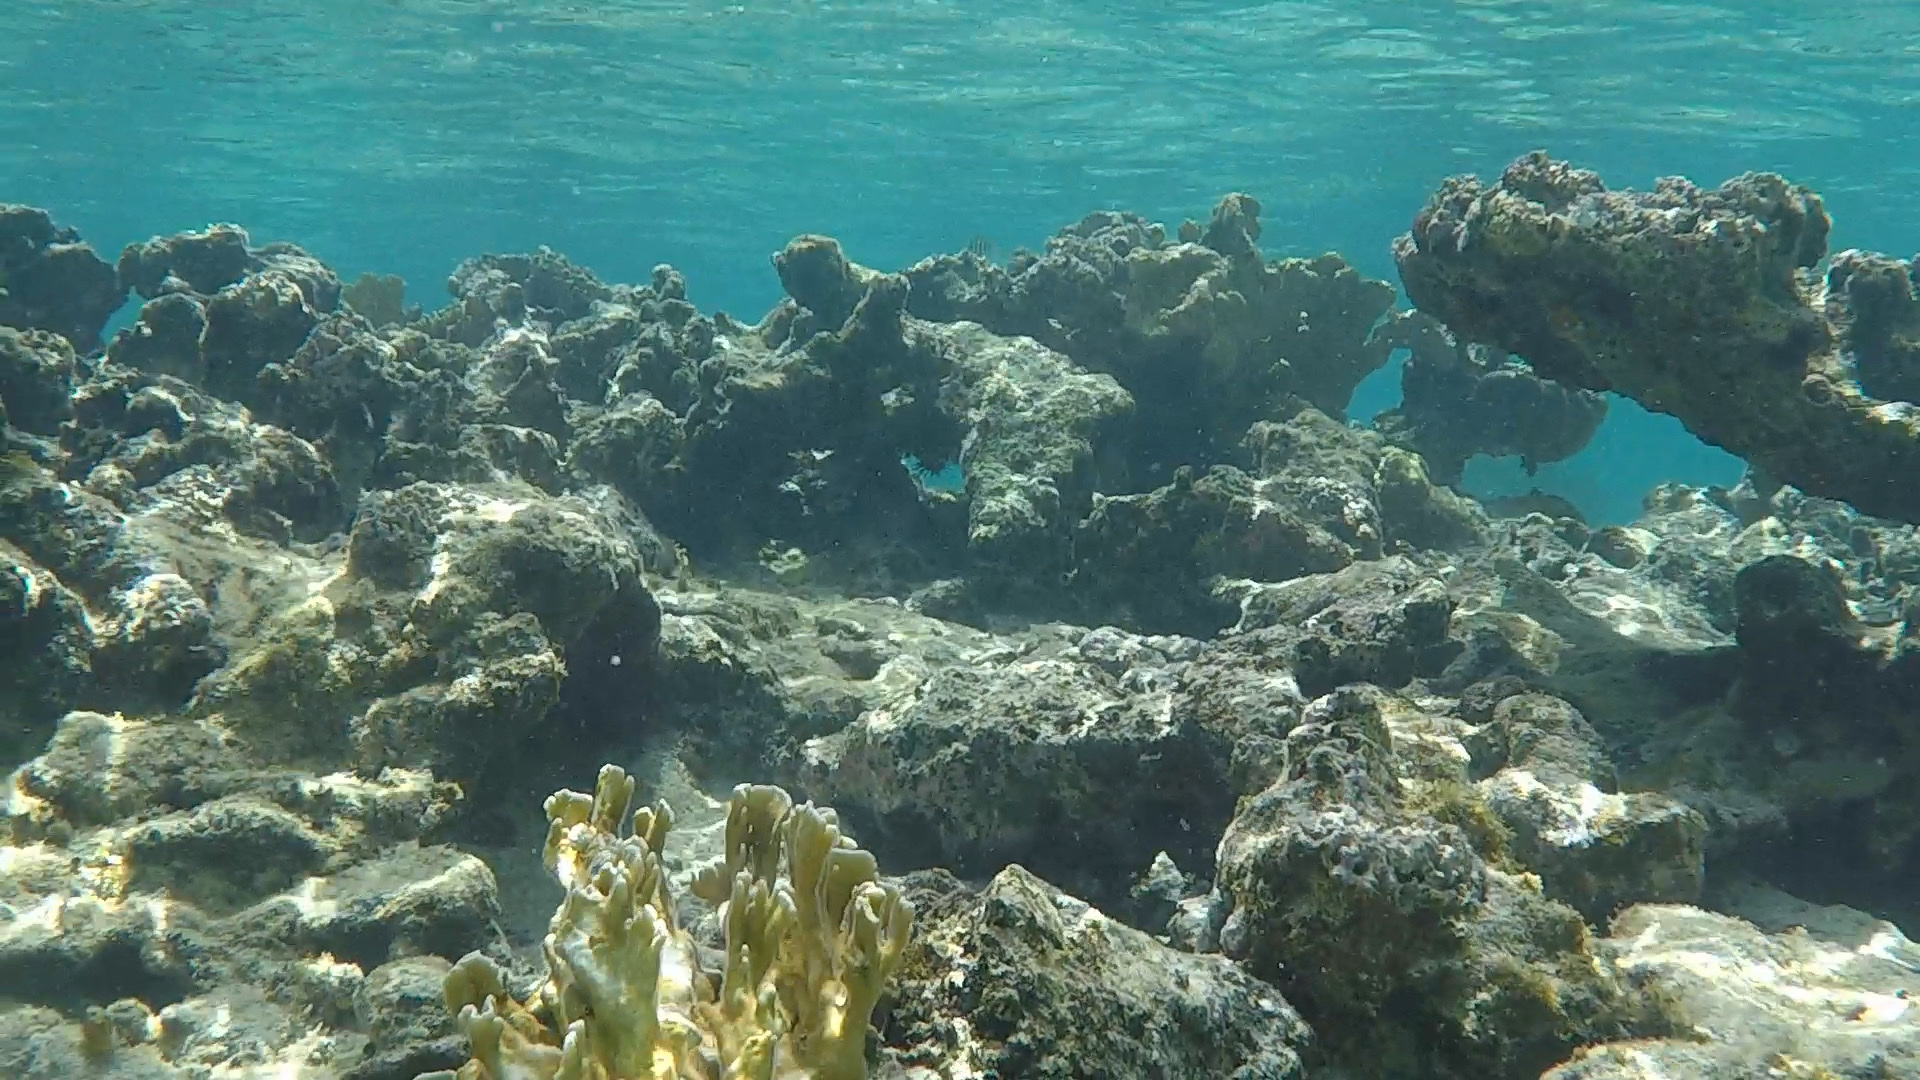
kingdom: Animalia
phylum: Cnidaria
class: Hydrozoa
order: Anthoathecata
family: Milleporidae
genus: Millepora
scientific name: Millepora complanata
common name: Bladed fire coral
